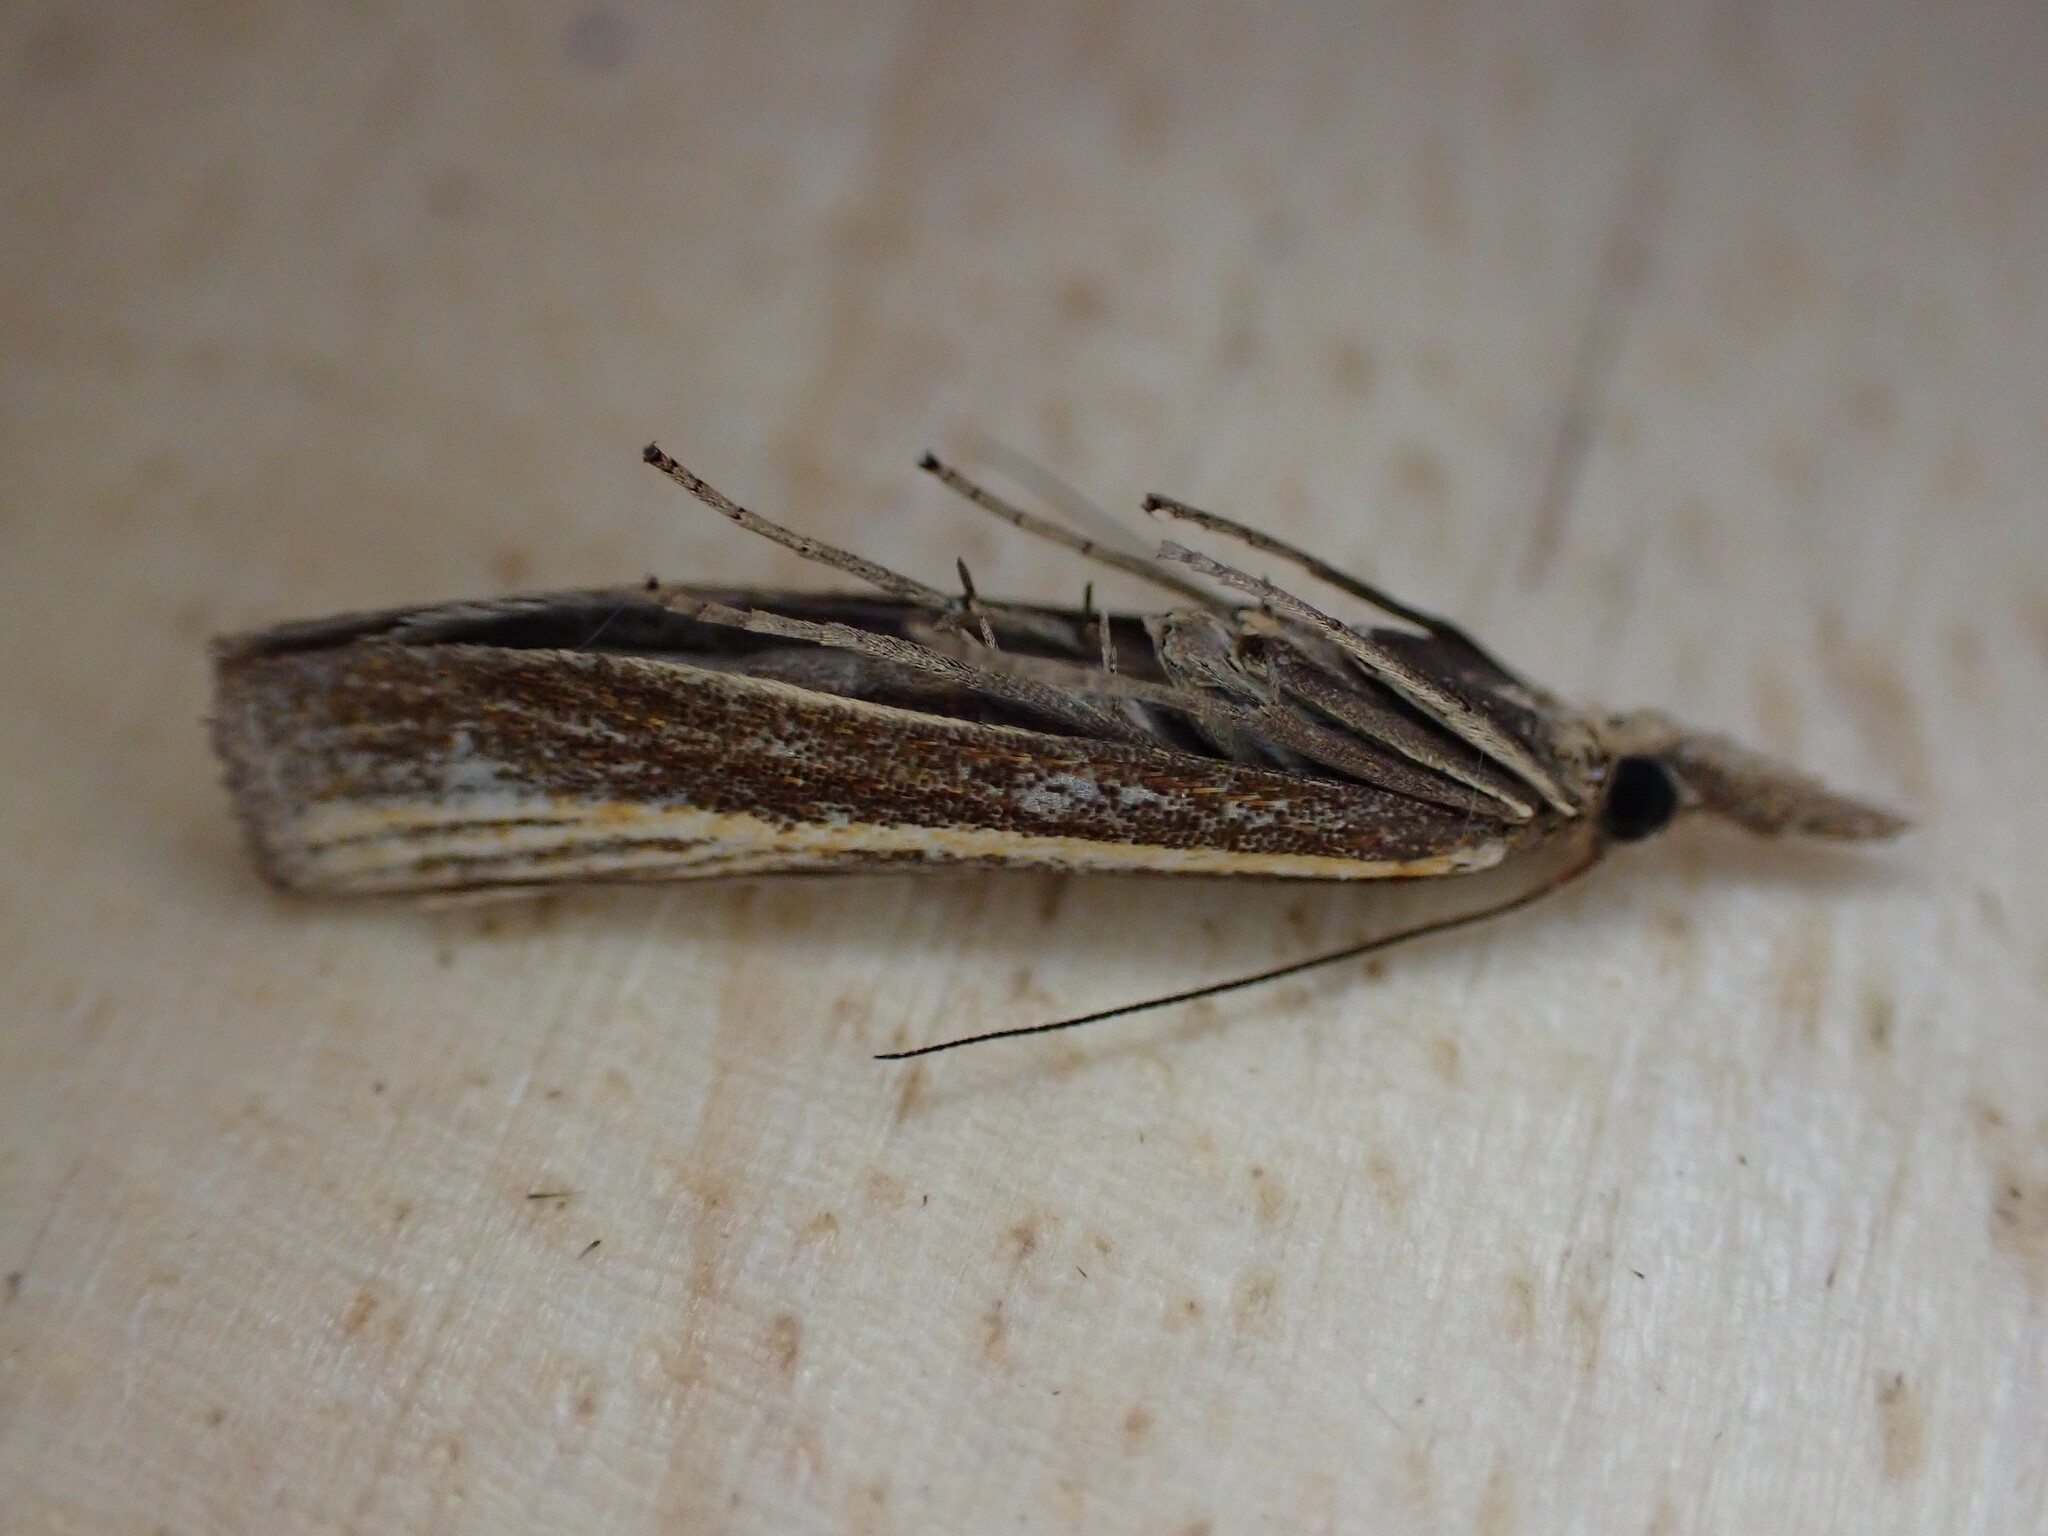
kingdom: Animalia
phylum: Arthropoda
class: Insecta
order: Lepidoptera
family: Crambidae
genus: Agriphila
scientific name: Agriphila tristellus
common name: Common grass-veneer
